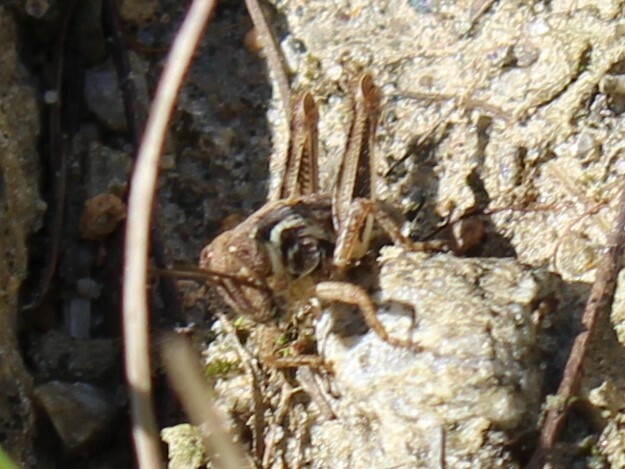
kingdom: Animalia
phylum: Arthropoda
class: Insecta
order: Orthoptera
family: Acrididae
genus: Melanoplus
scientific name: Melanoplus
